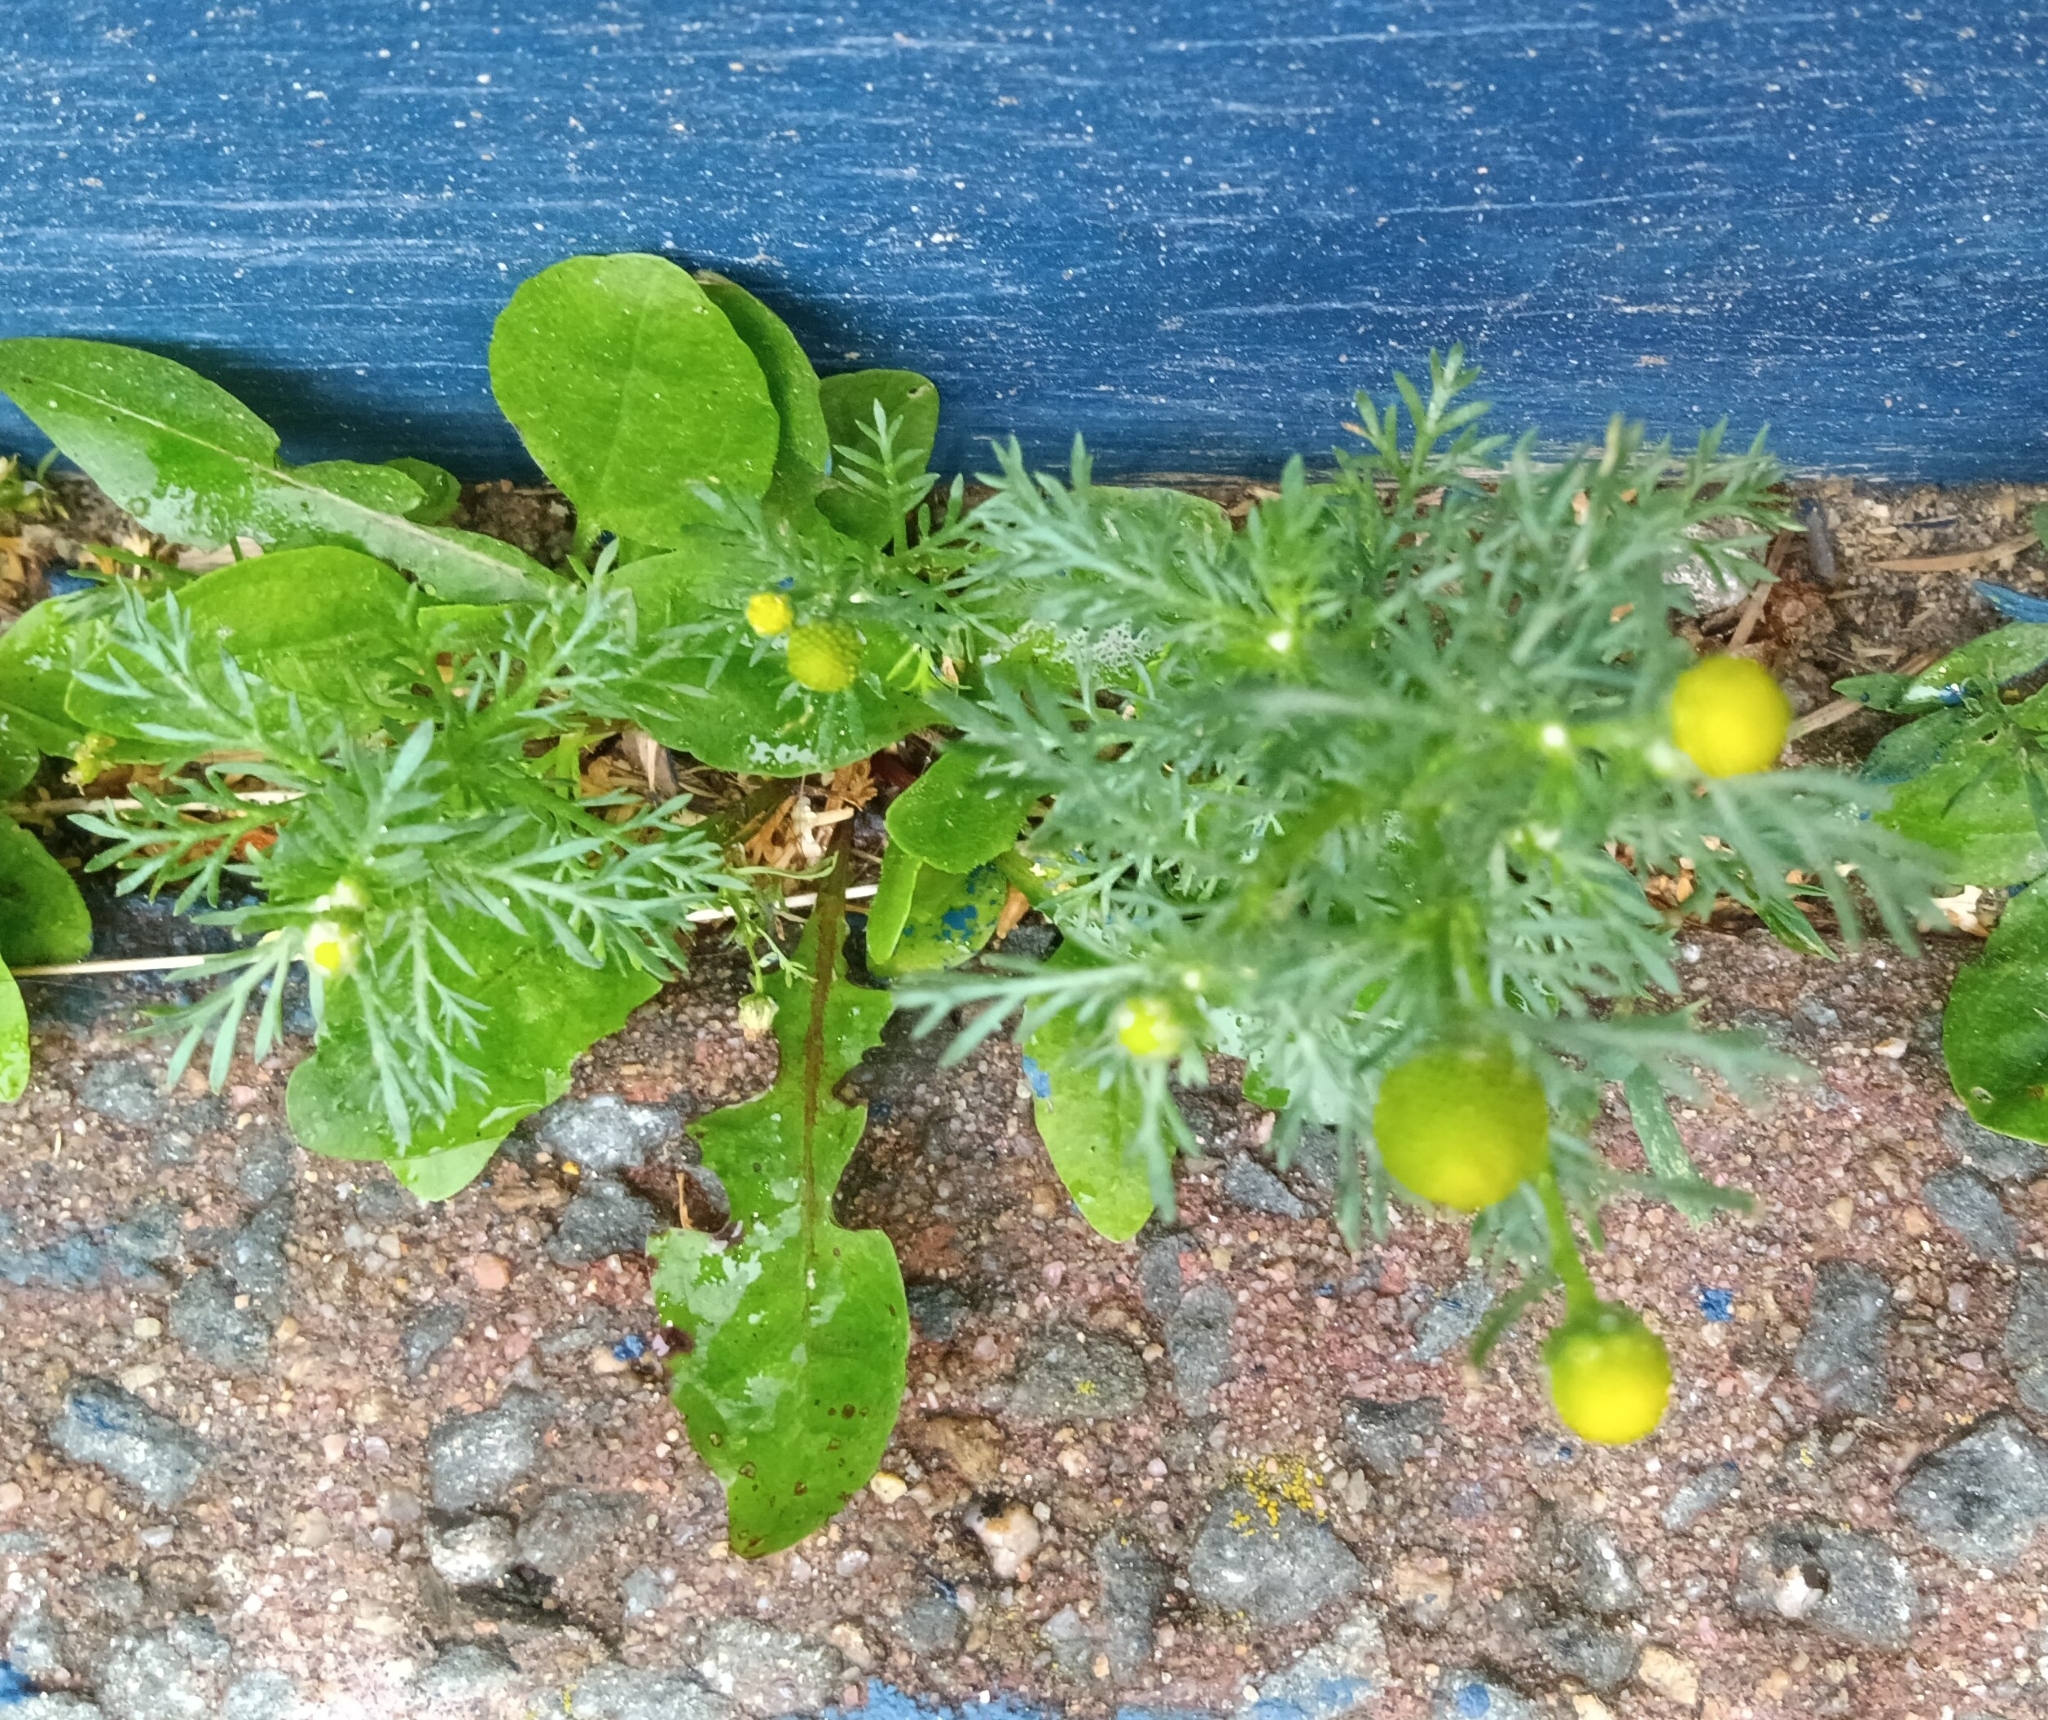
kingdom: Plantae
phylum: Tracheophyta
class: Magnoliopsida
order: Asterales
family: Asteraceae
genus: Matricaria
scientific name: Matricaria discoidea
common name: Disc mayweed
